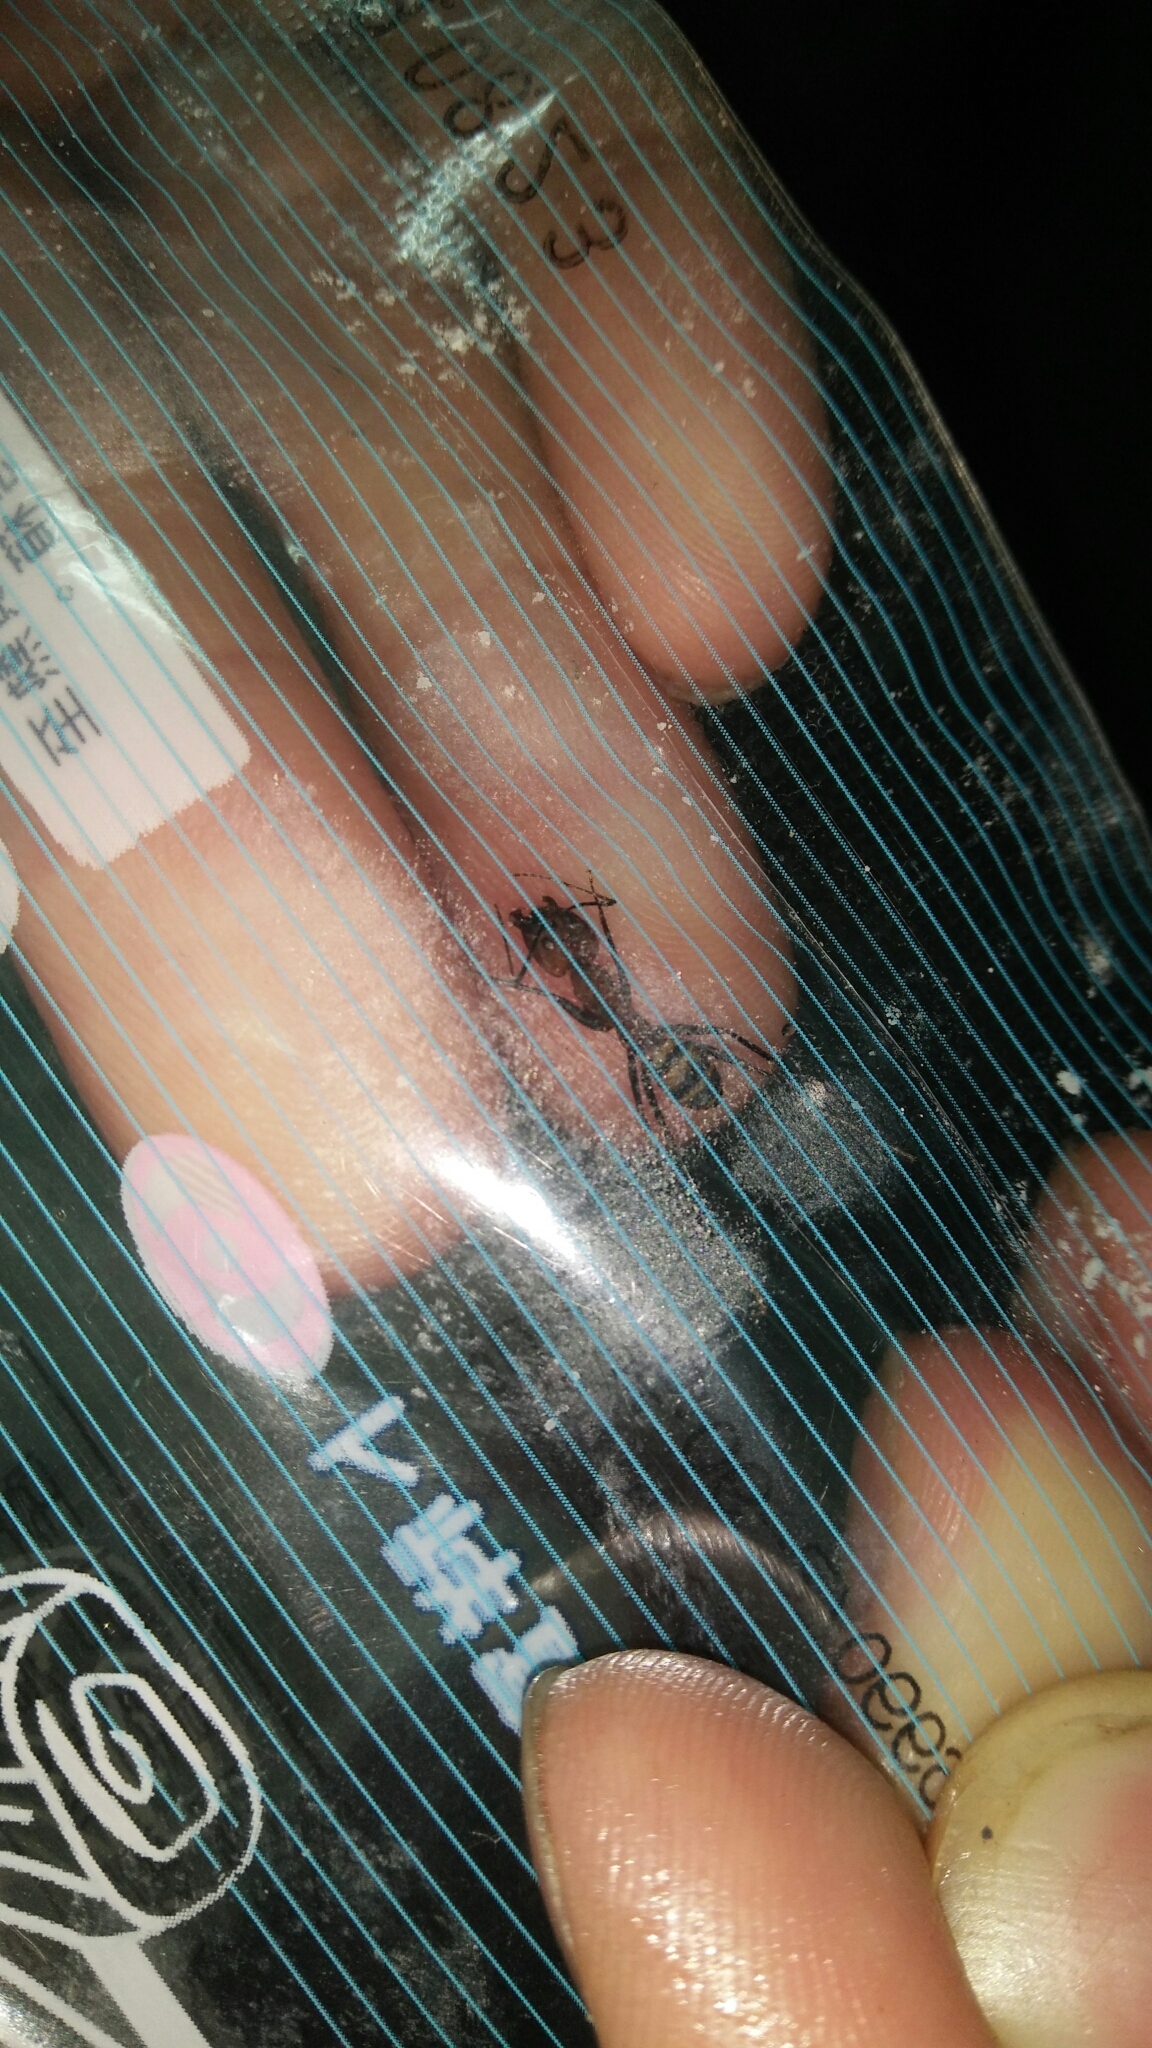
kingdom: Animalia
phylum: Arthropoda
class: Insecta
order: Hymenoptera
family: Formicidae
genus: Camponotus
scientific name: Camponotus habereri
